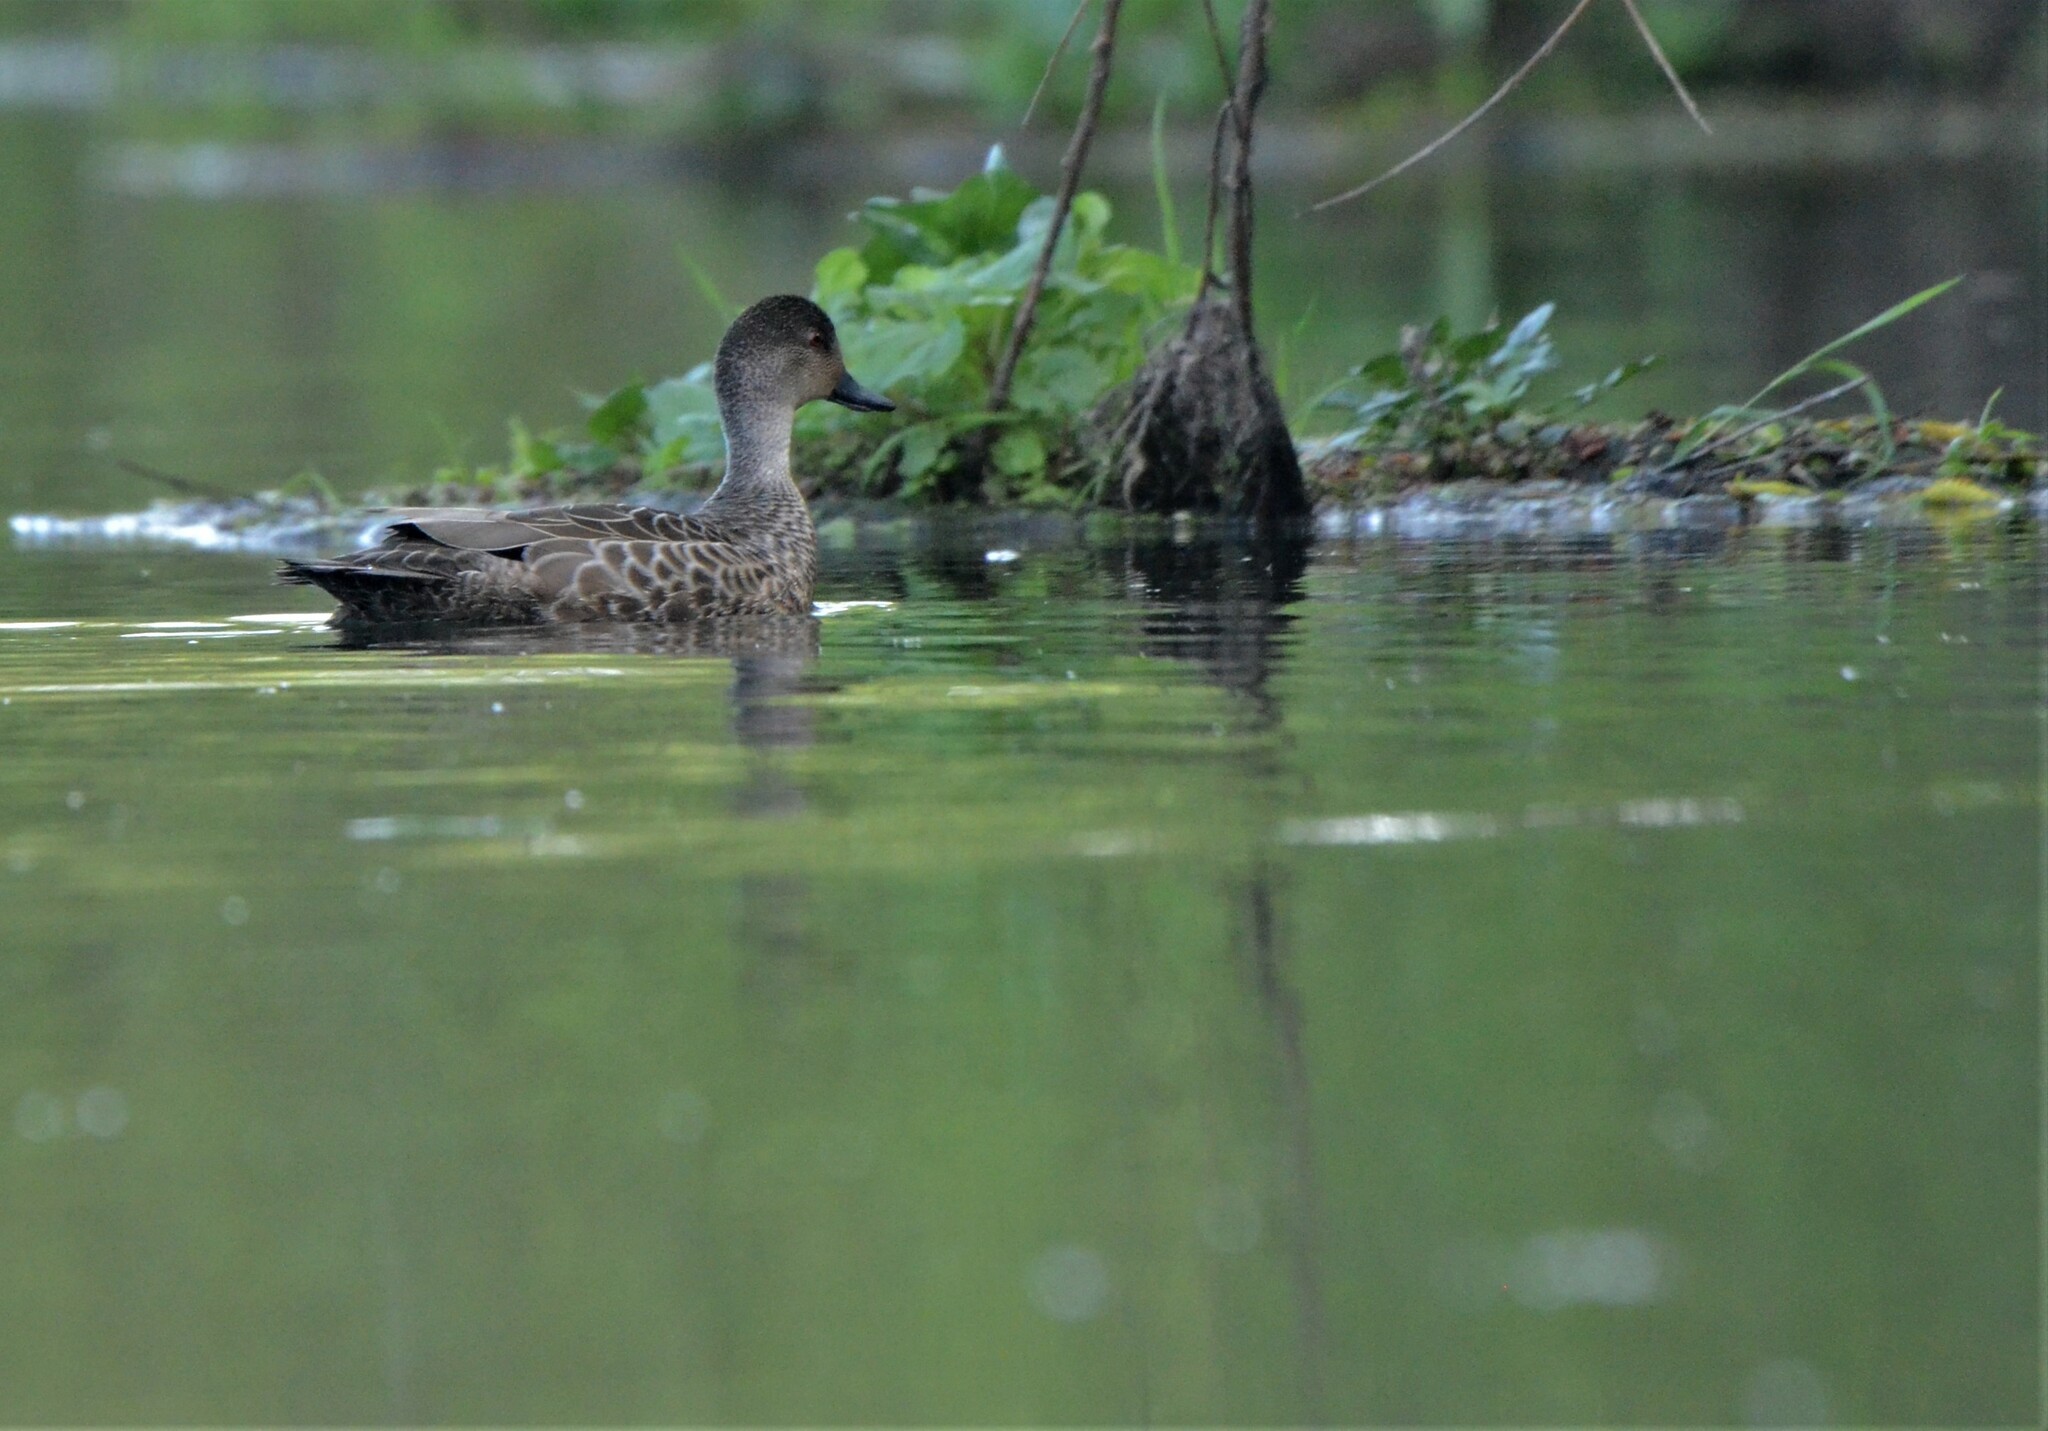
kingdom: Animalia
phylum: Chordata
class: Aves
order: Anseriformes
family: Anatidae
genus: Anas
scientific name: Anas gracilis
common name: Grey teal
